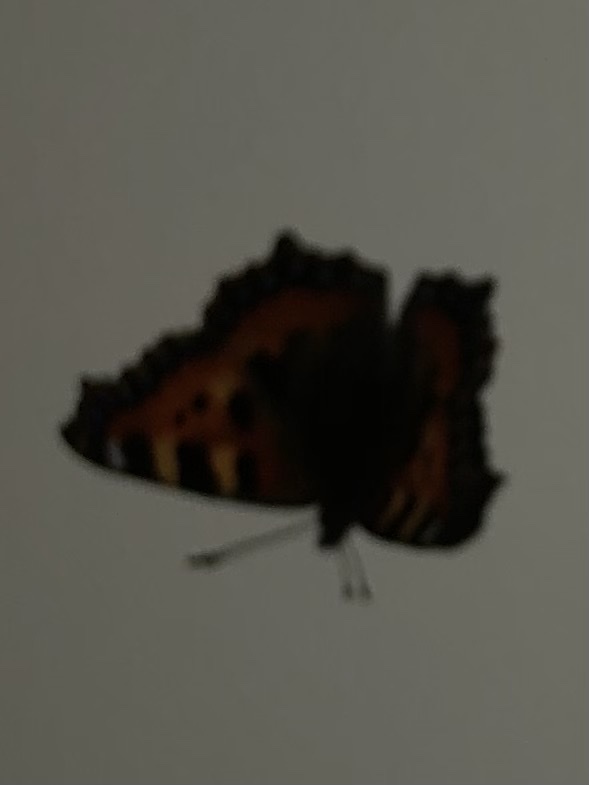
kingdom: Animalia
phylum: Arthropoda
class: Insecta
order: Lepidoptera
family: Nymphalidae
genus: Aglais
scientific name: Aglais urticae
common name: Small tortoiseshell
